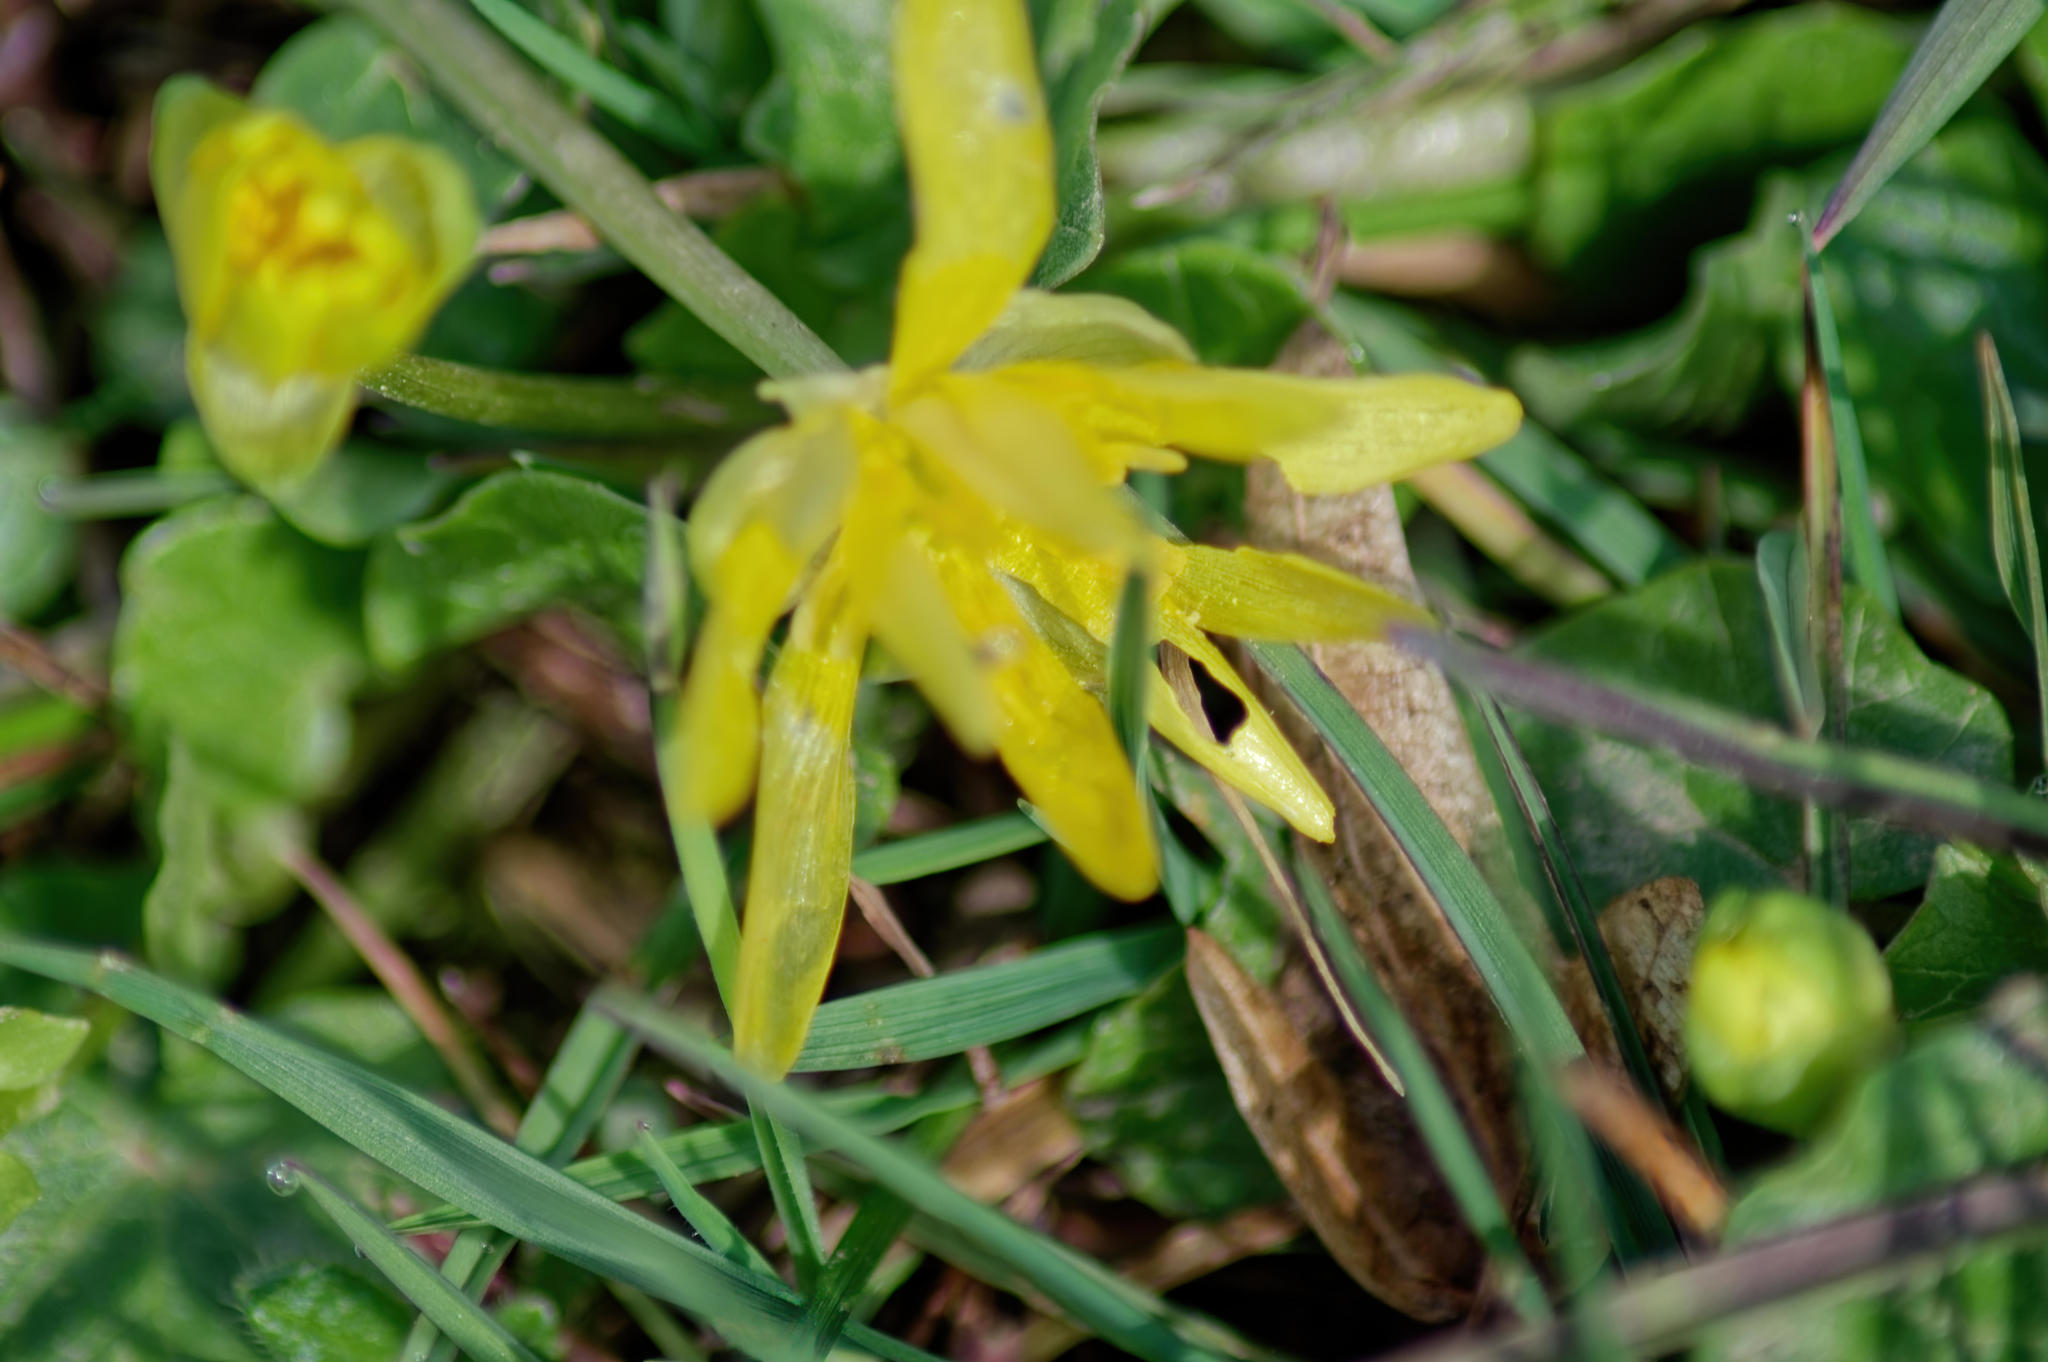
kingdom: Plantae
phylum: Tracheophyta
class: Magnoliopsida
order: Ranunculales
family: Ranunculaceae
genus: Ficaria
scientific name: Ficaria verna
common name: Lesser celandine
